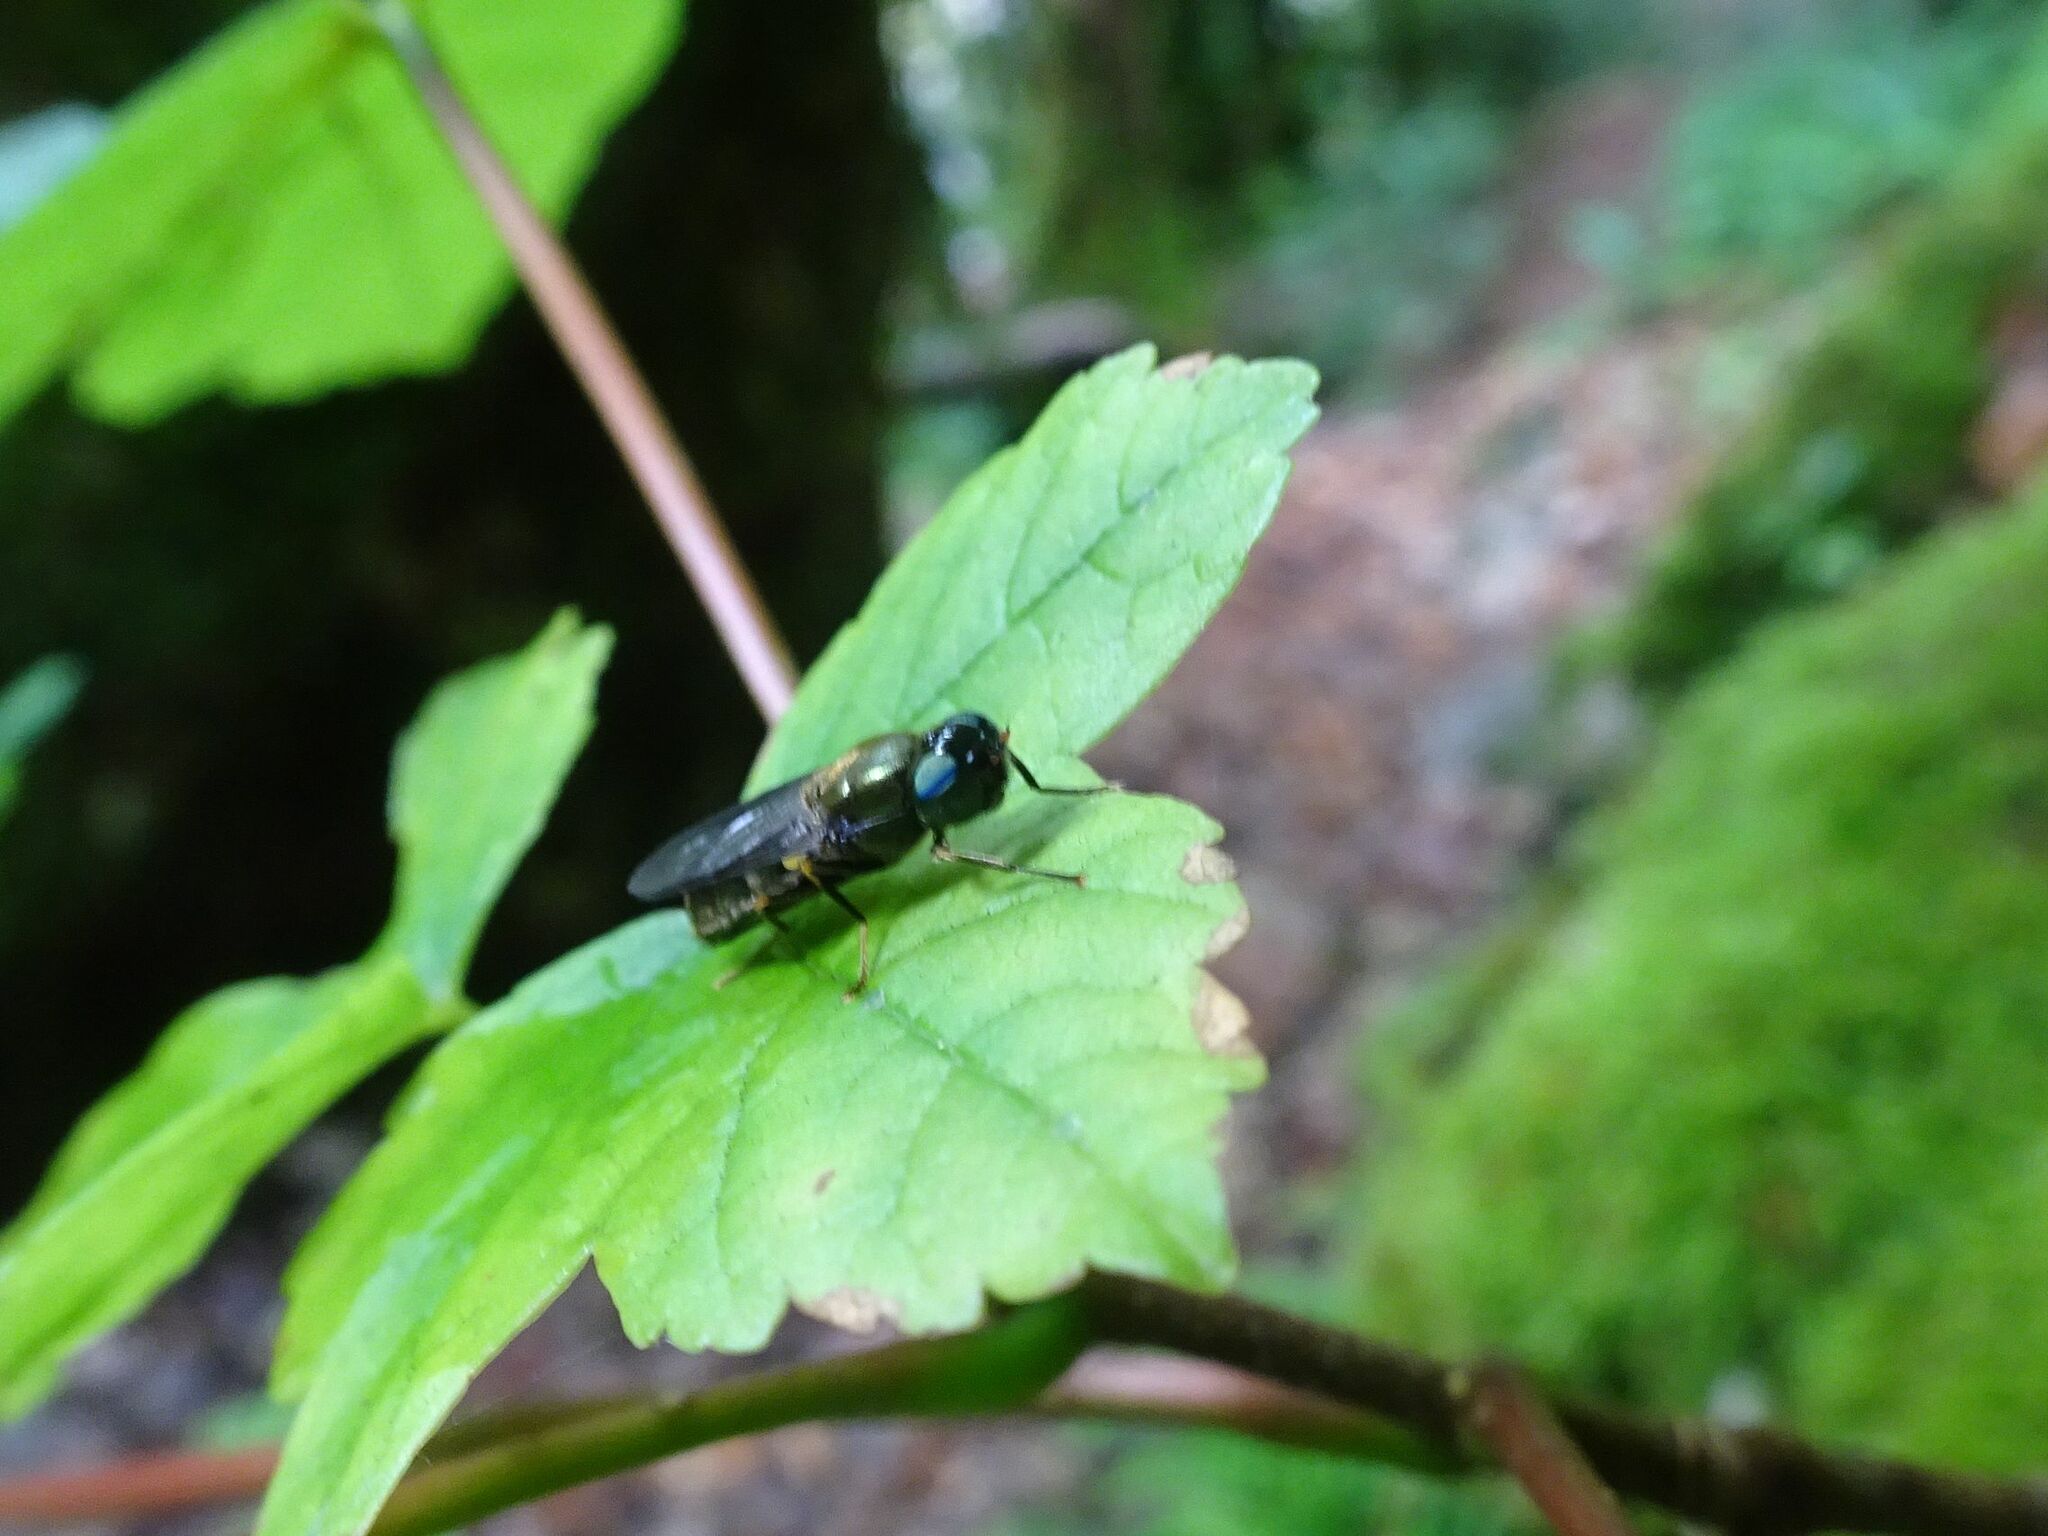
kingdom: Animalia
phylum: Arthropoda
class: Insecta
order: Diptera
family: Stratiomyidae
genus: Chloromyia
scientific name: Chloromyia speciosa
